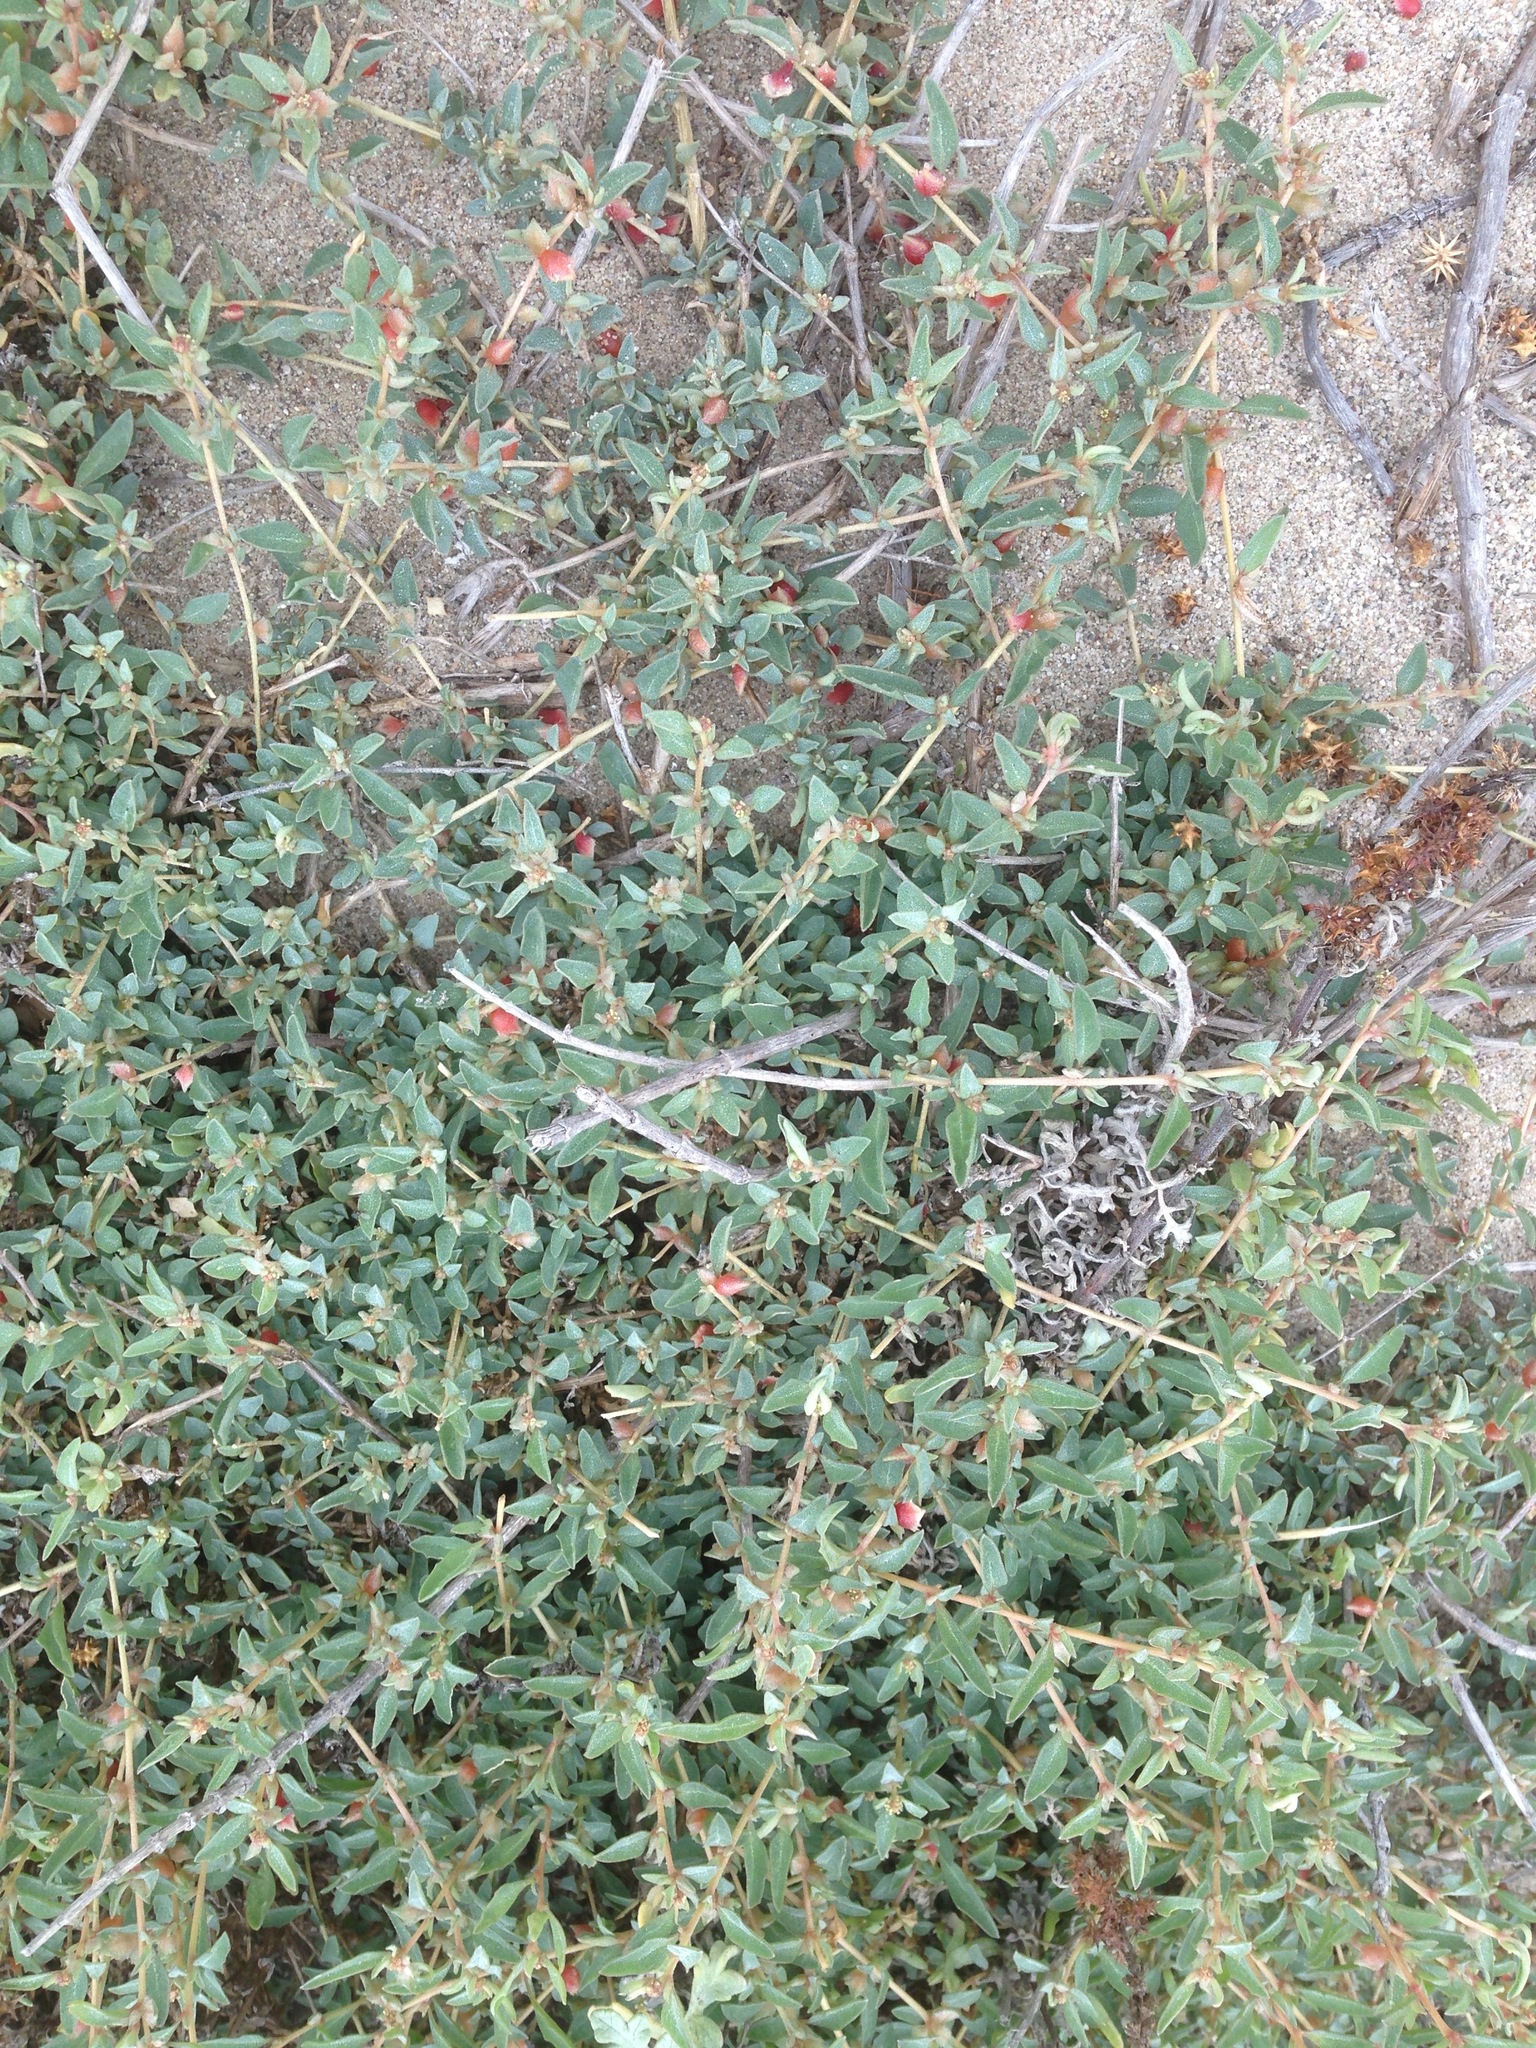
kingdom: Plantae
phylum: Tracheophyta
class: Magnoliopsida
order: Caryophyllales
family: Amaranthaceae
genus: Atriplex
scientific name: Atriplex semibaccata
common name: Australian saltbush
